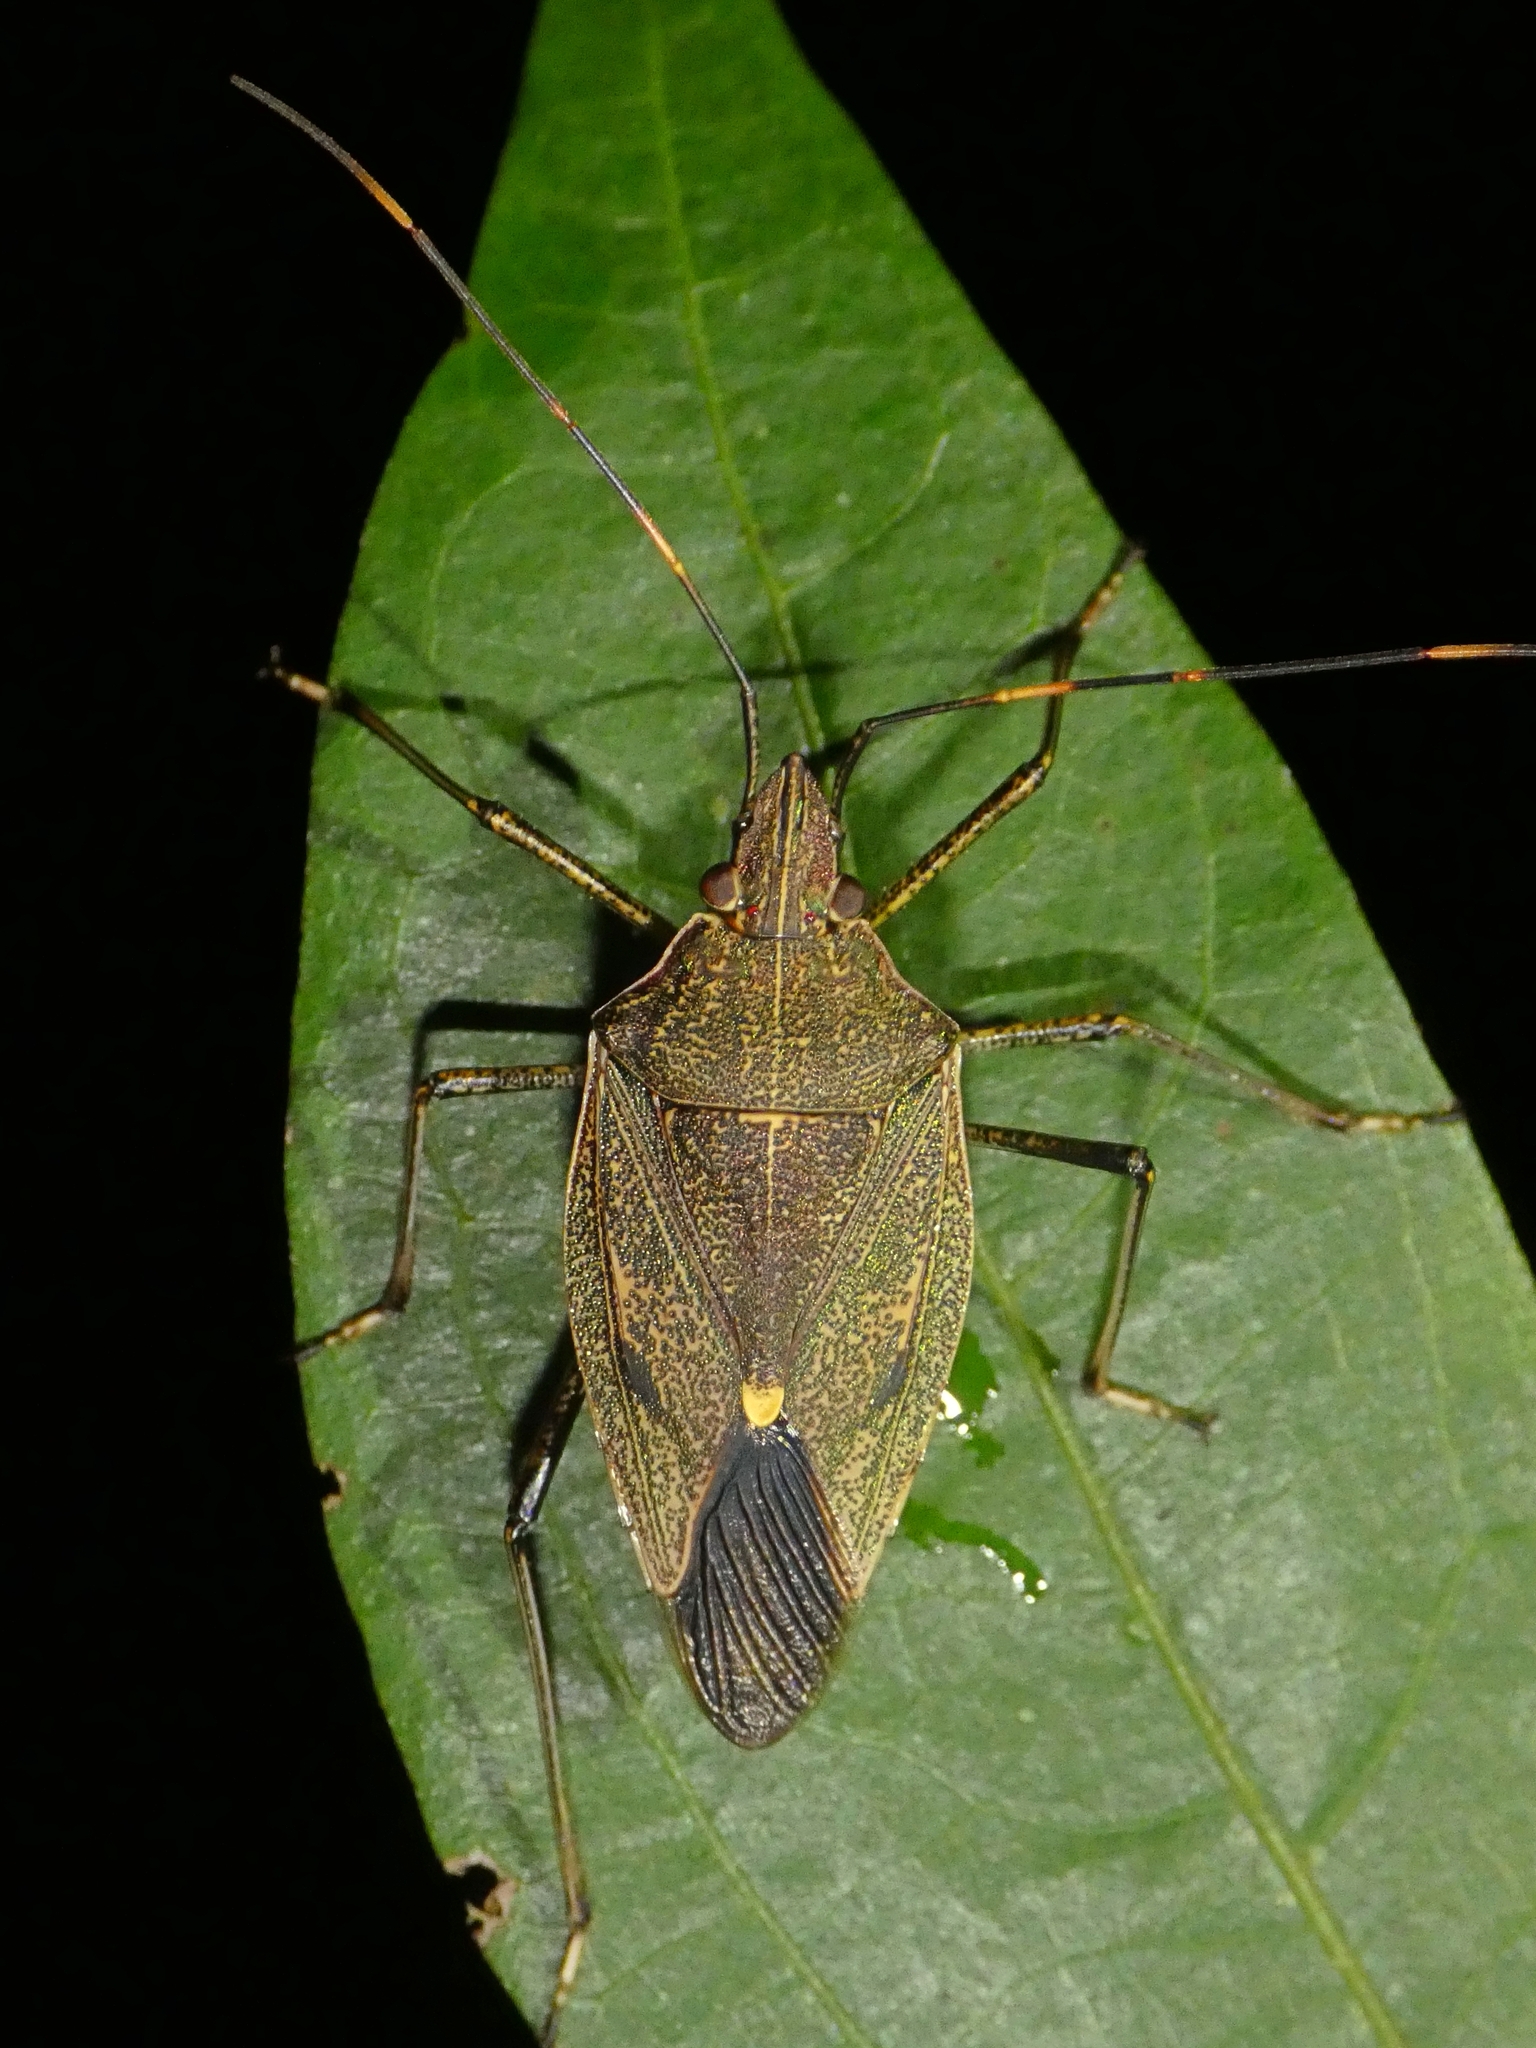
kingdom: Animalia
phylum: Arthropoda
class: Insecta
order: Hemiptera
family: Pentatomidae
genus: Poecilometis
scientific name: Poecilometis
